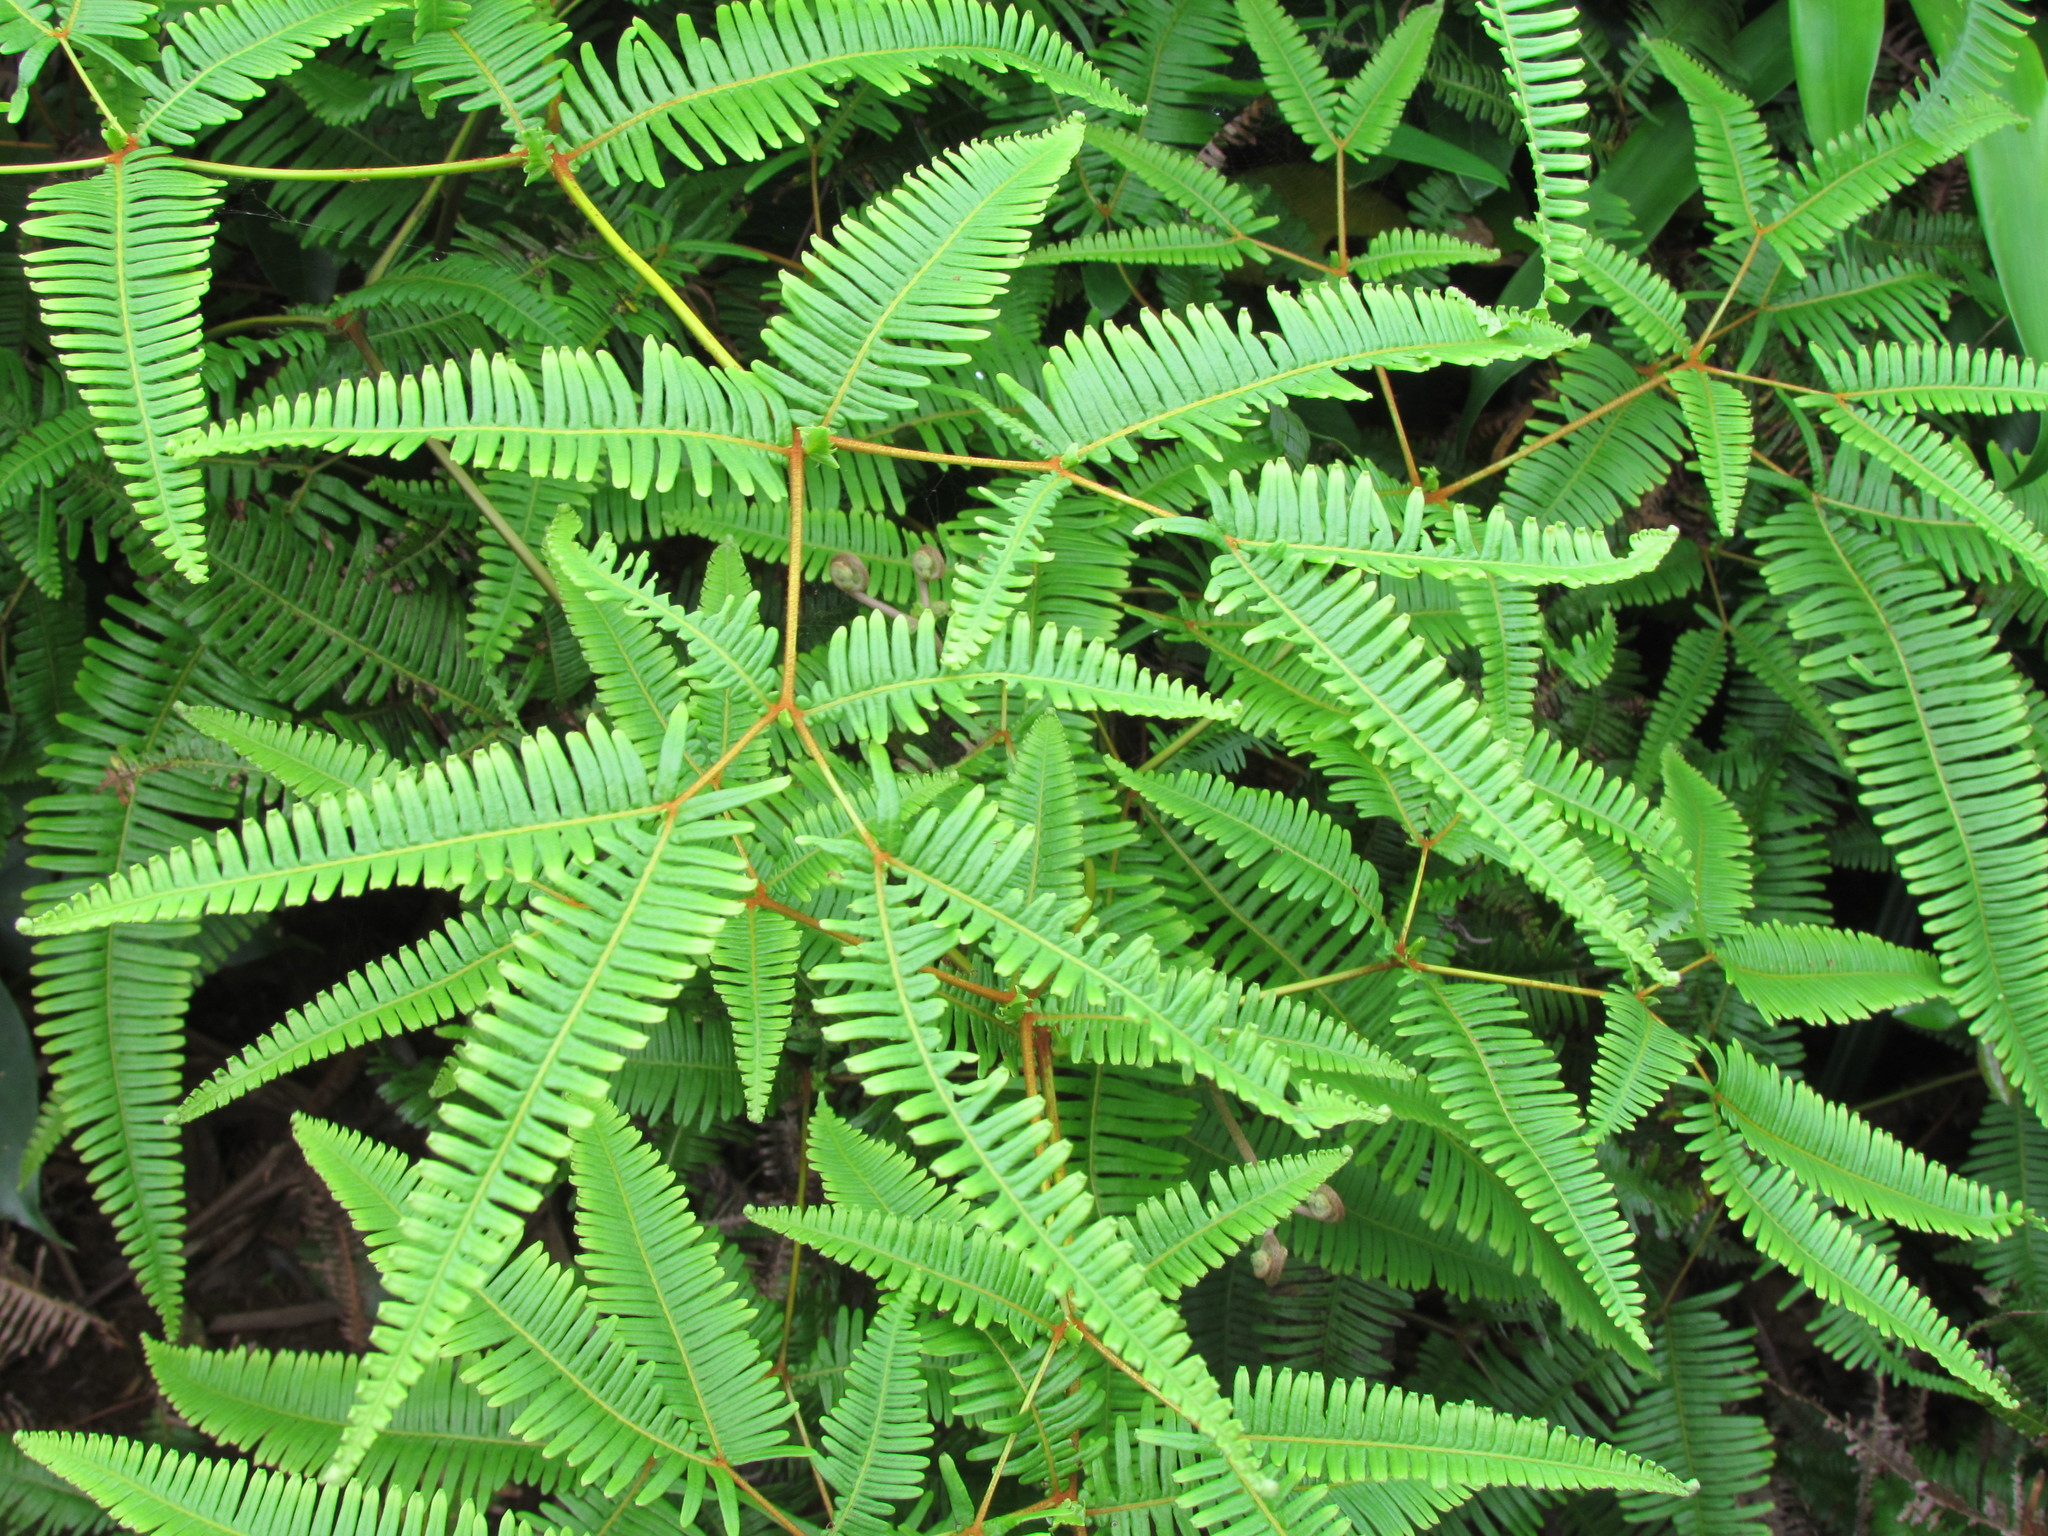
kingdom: Plantae
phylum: Tracheophyta
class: Polypodiopsida
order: Gleicheniales
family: Gleicheniaceae
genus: Dicranopteris
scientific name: Dicranopteris linearis
